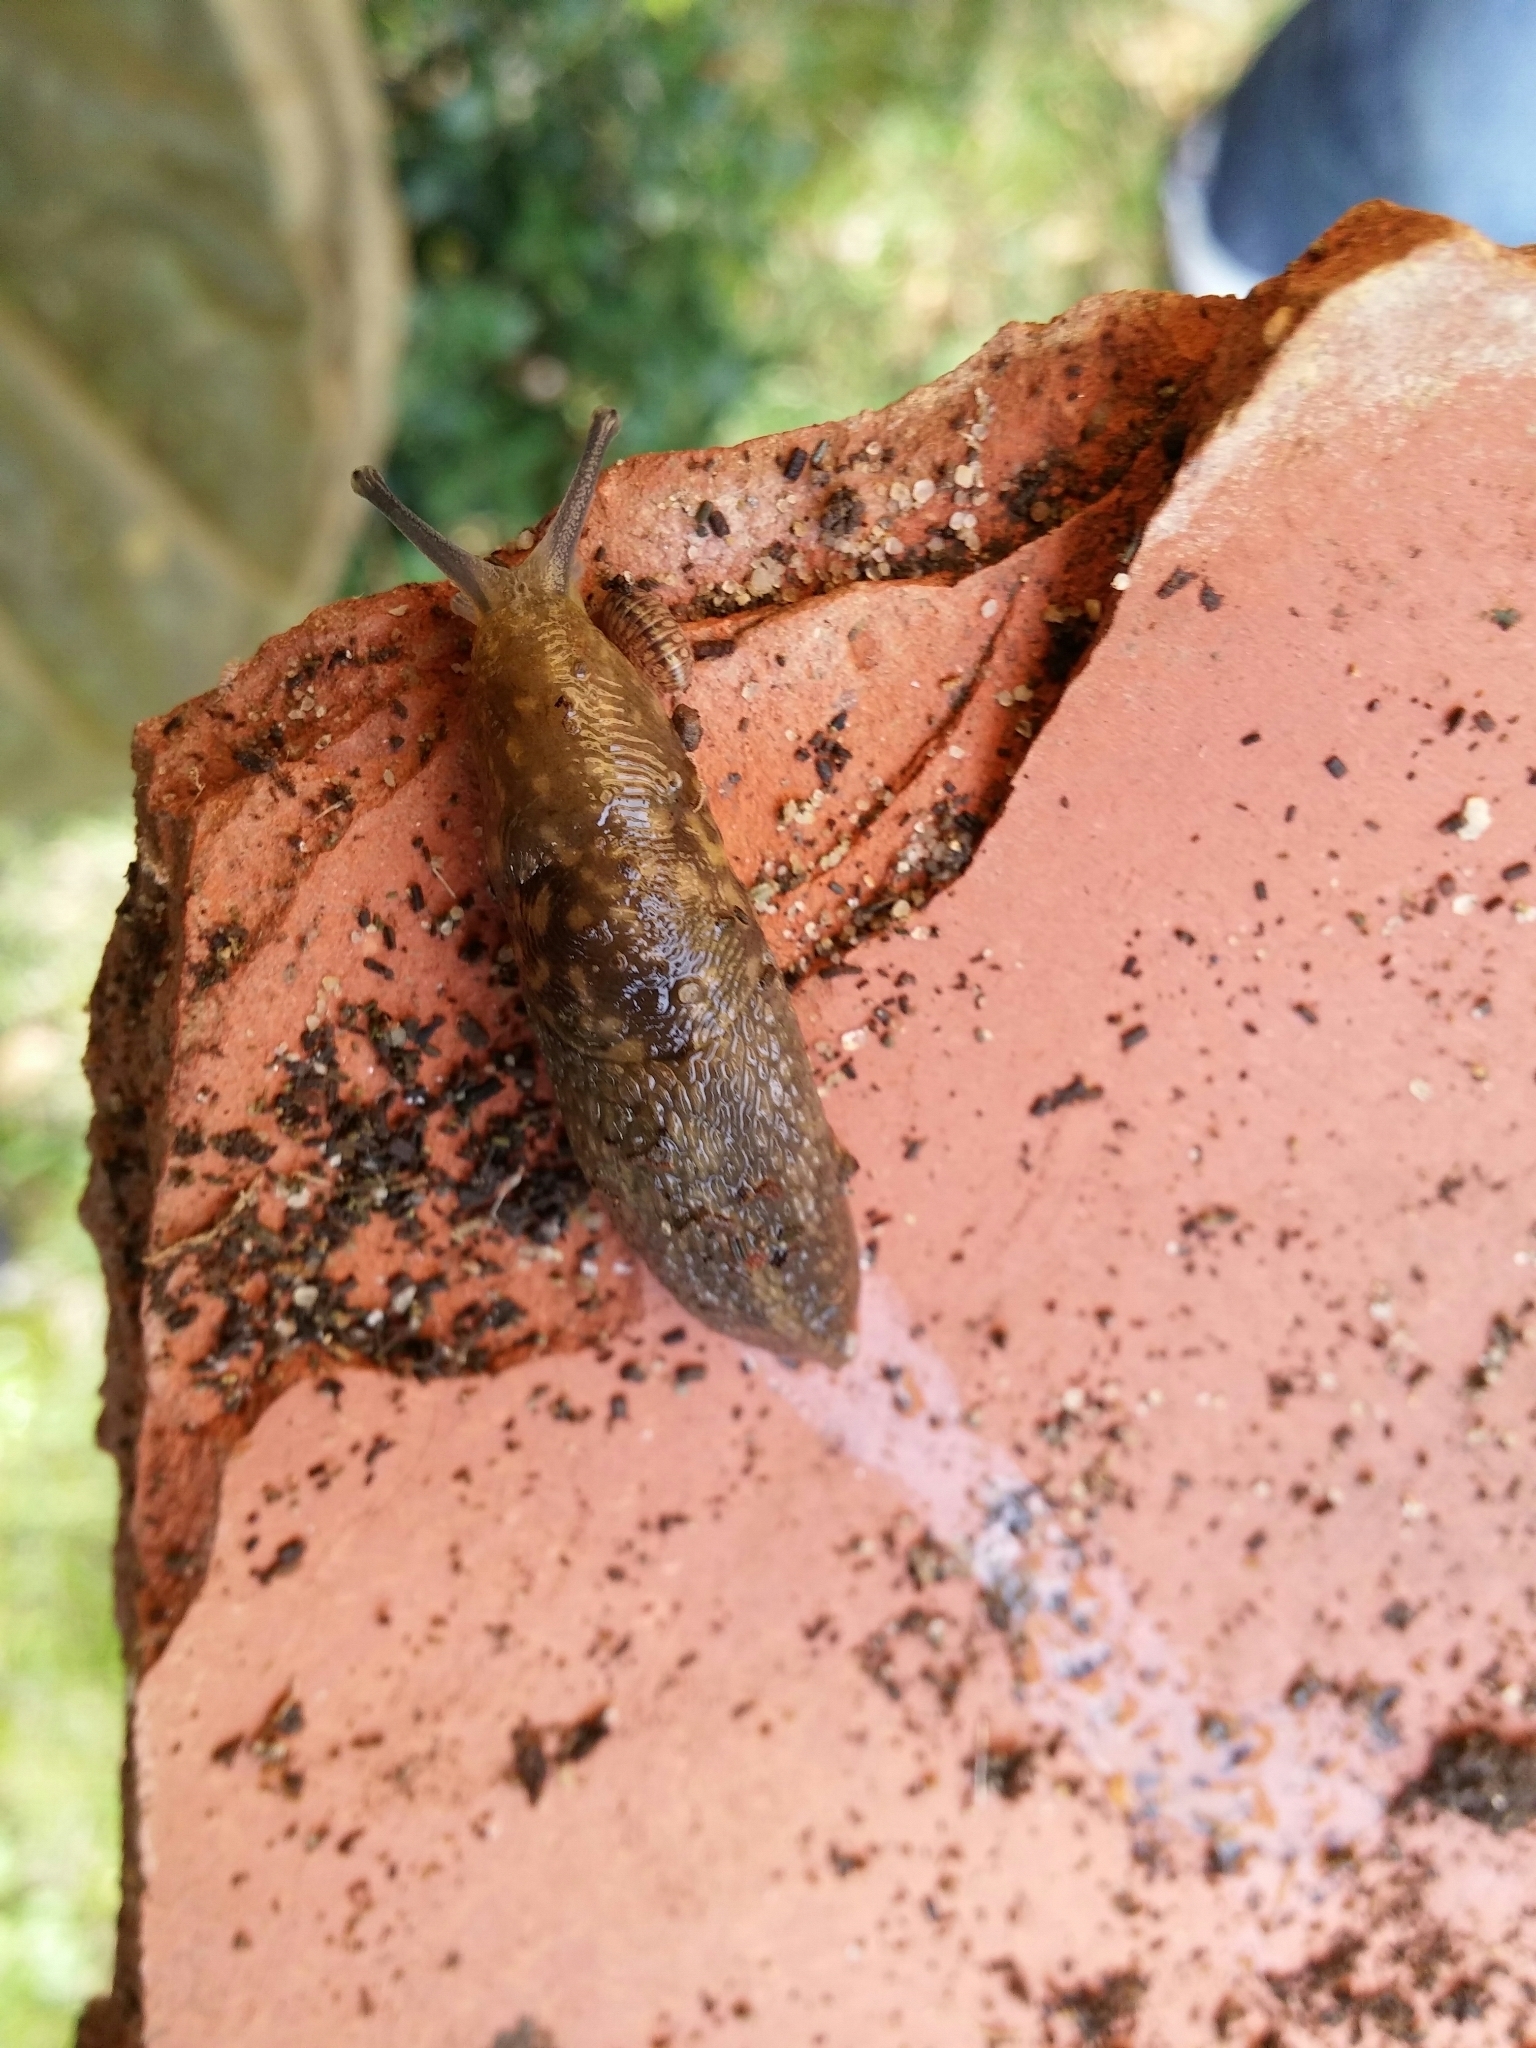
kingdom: Animalia
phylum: Mollusca
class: Gastropoda
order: Stylommatophora
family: Limacidae
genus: Limacus
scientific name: Limacus flavus
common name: Yellow gardenslug
